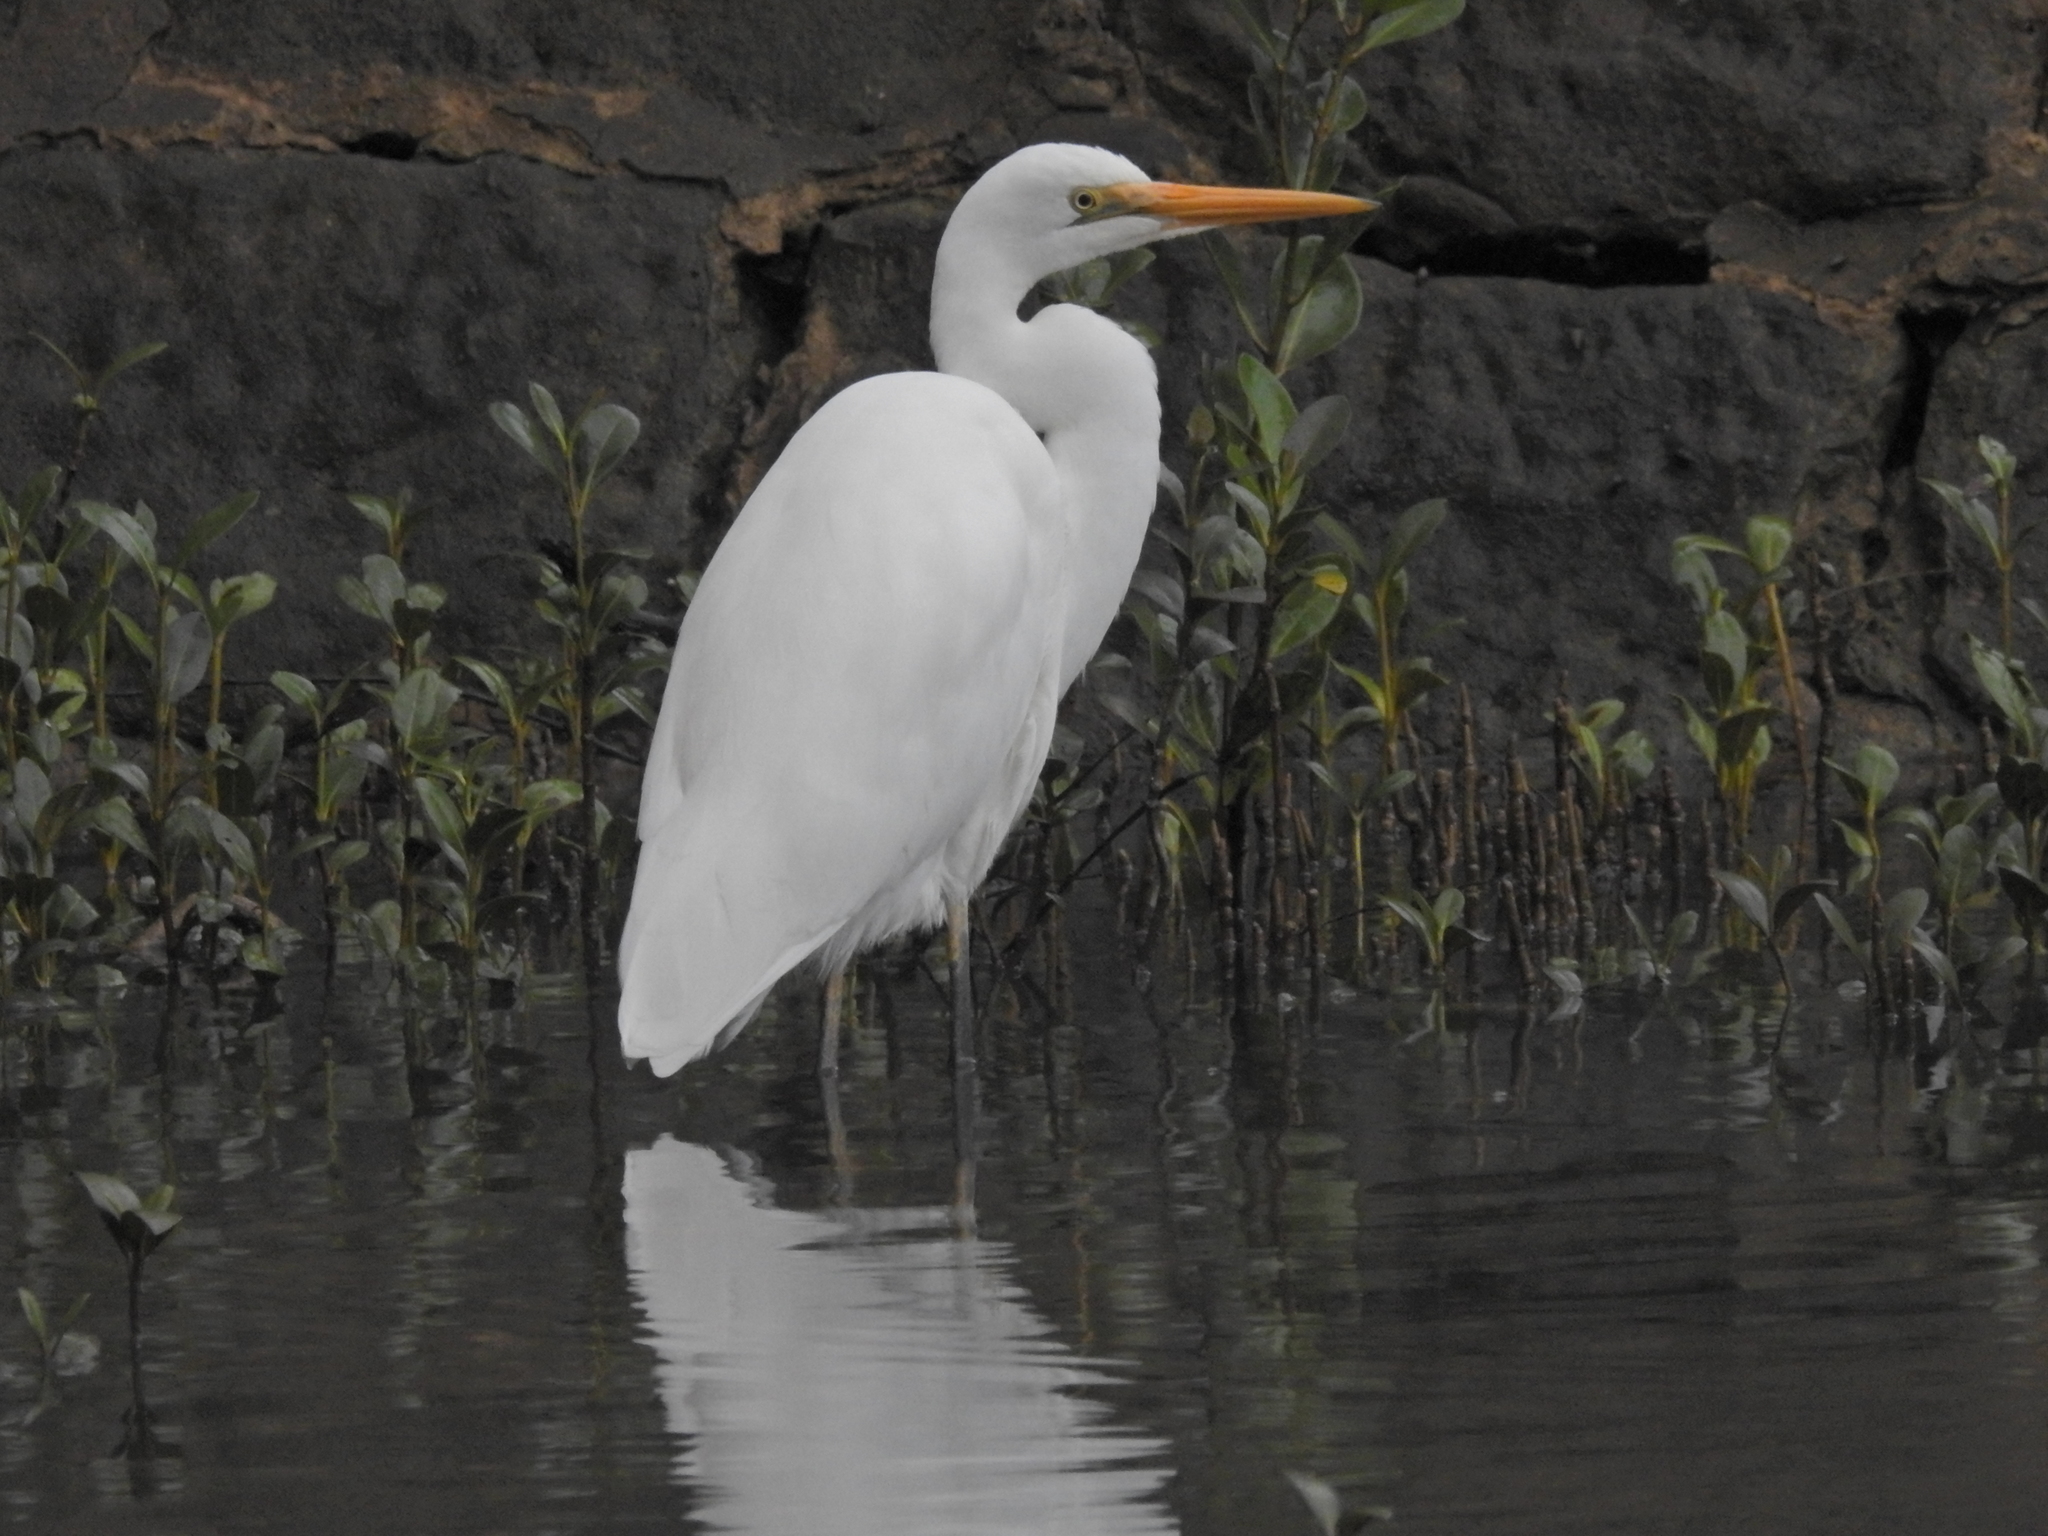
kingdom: Animalia
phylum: Chordata
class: Aves
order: Pelecaniformes
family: Ardeidae
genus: Ardea
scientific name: Ardea alba
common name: Great egret
